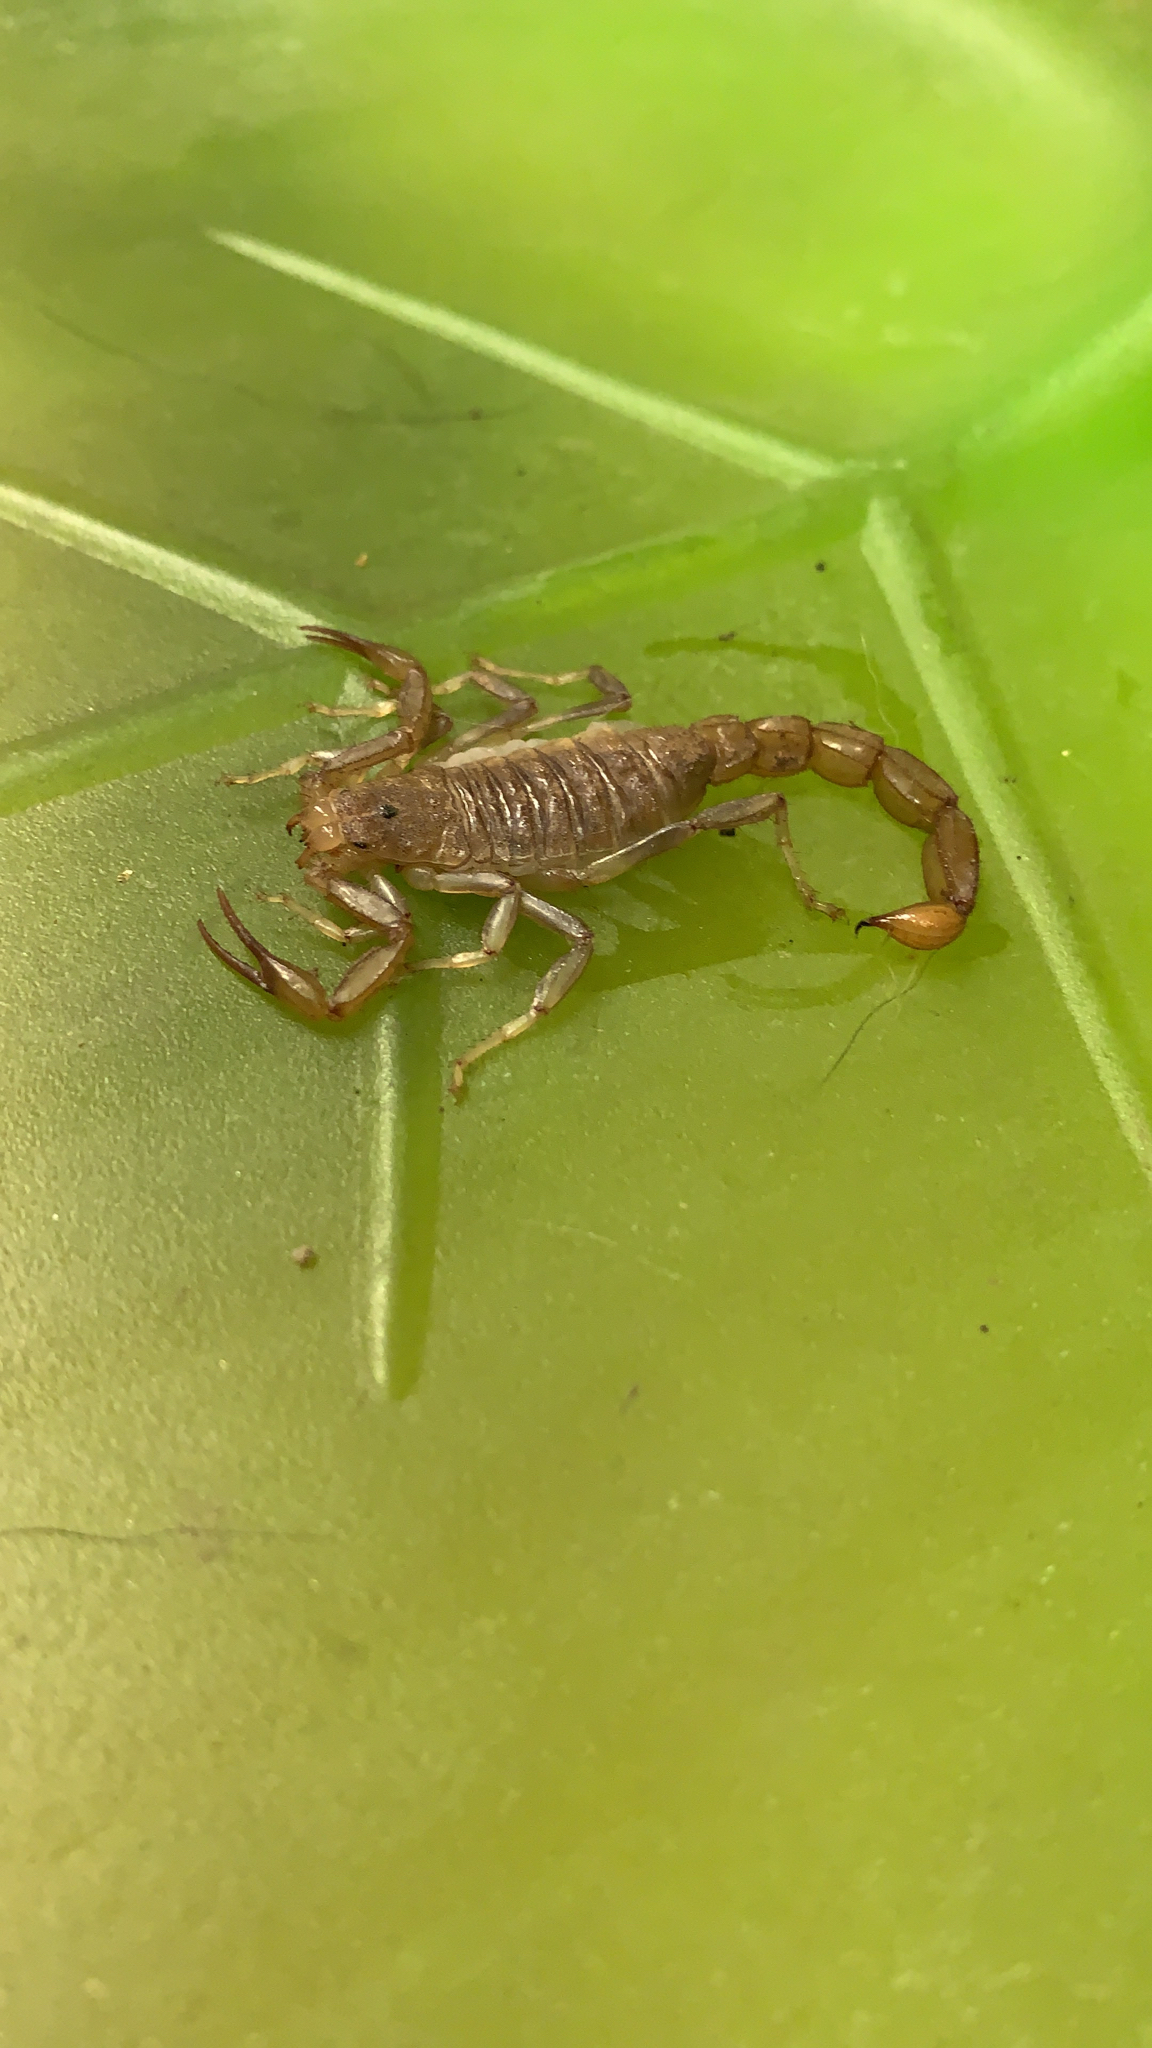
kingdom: Animalia
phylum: Arthropoda
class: Arachnida
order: Scorpiones
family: Vaejovidae
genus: Paravaejovis
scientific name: Paravaejovis puritanus
